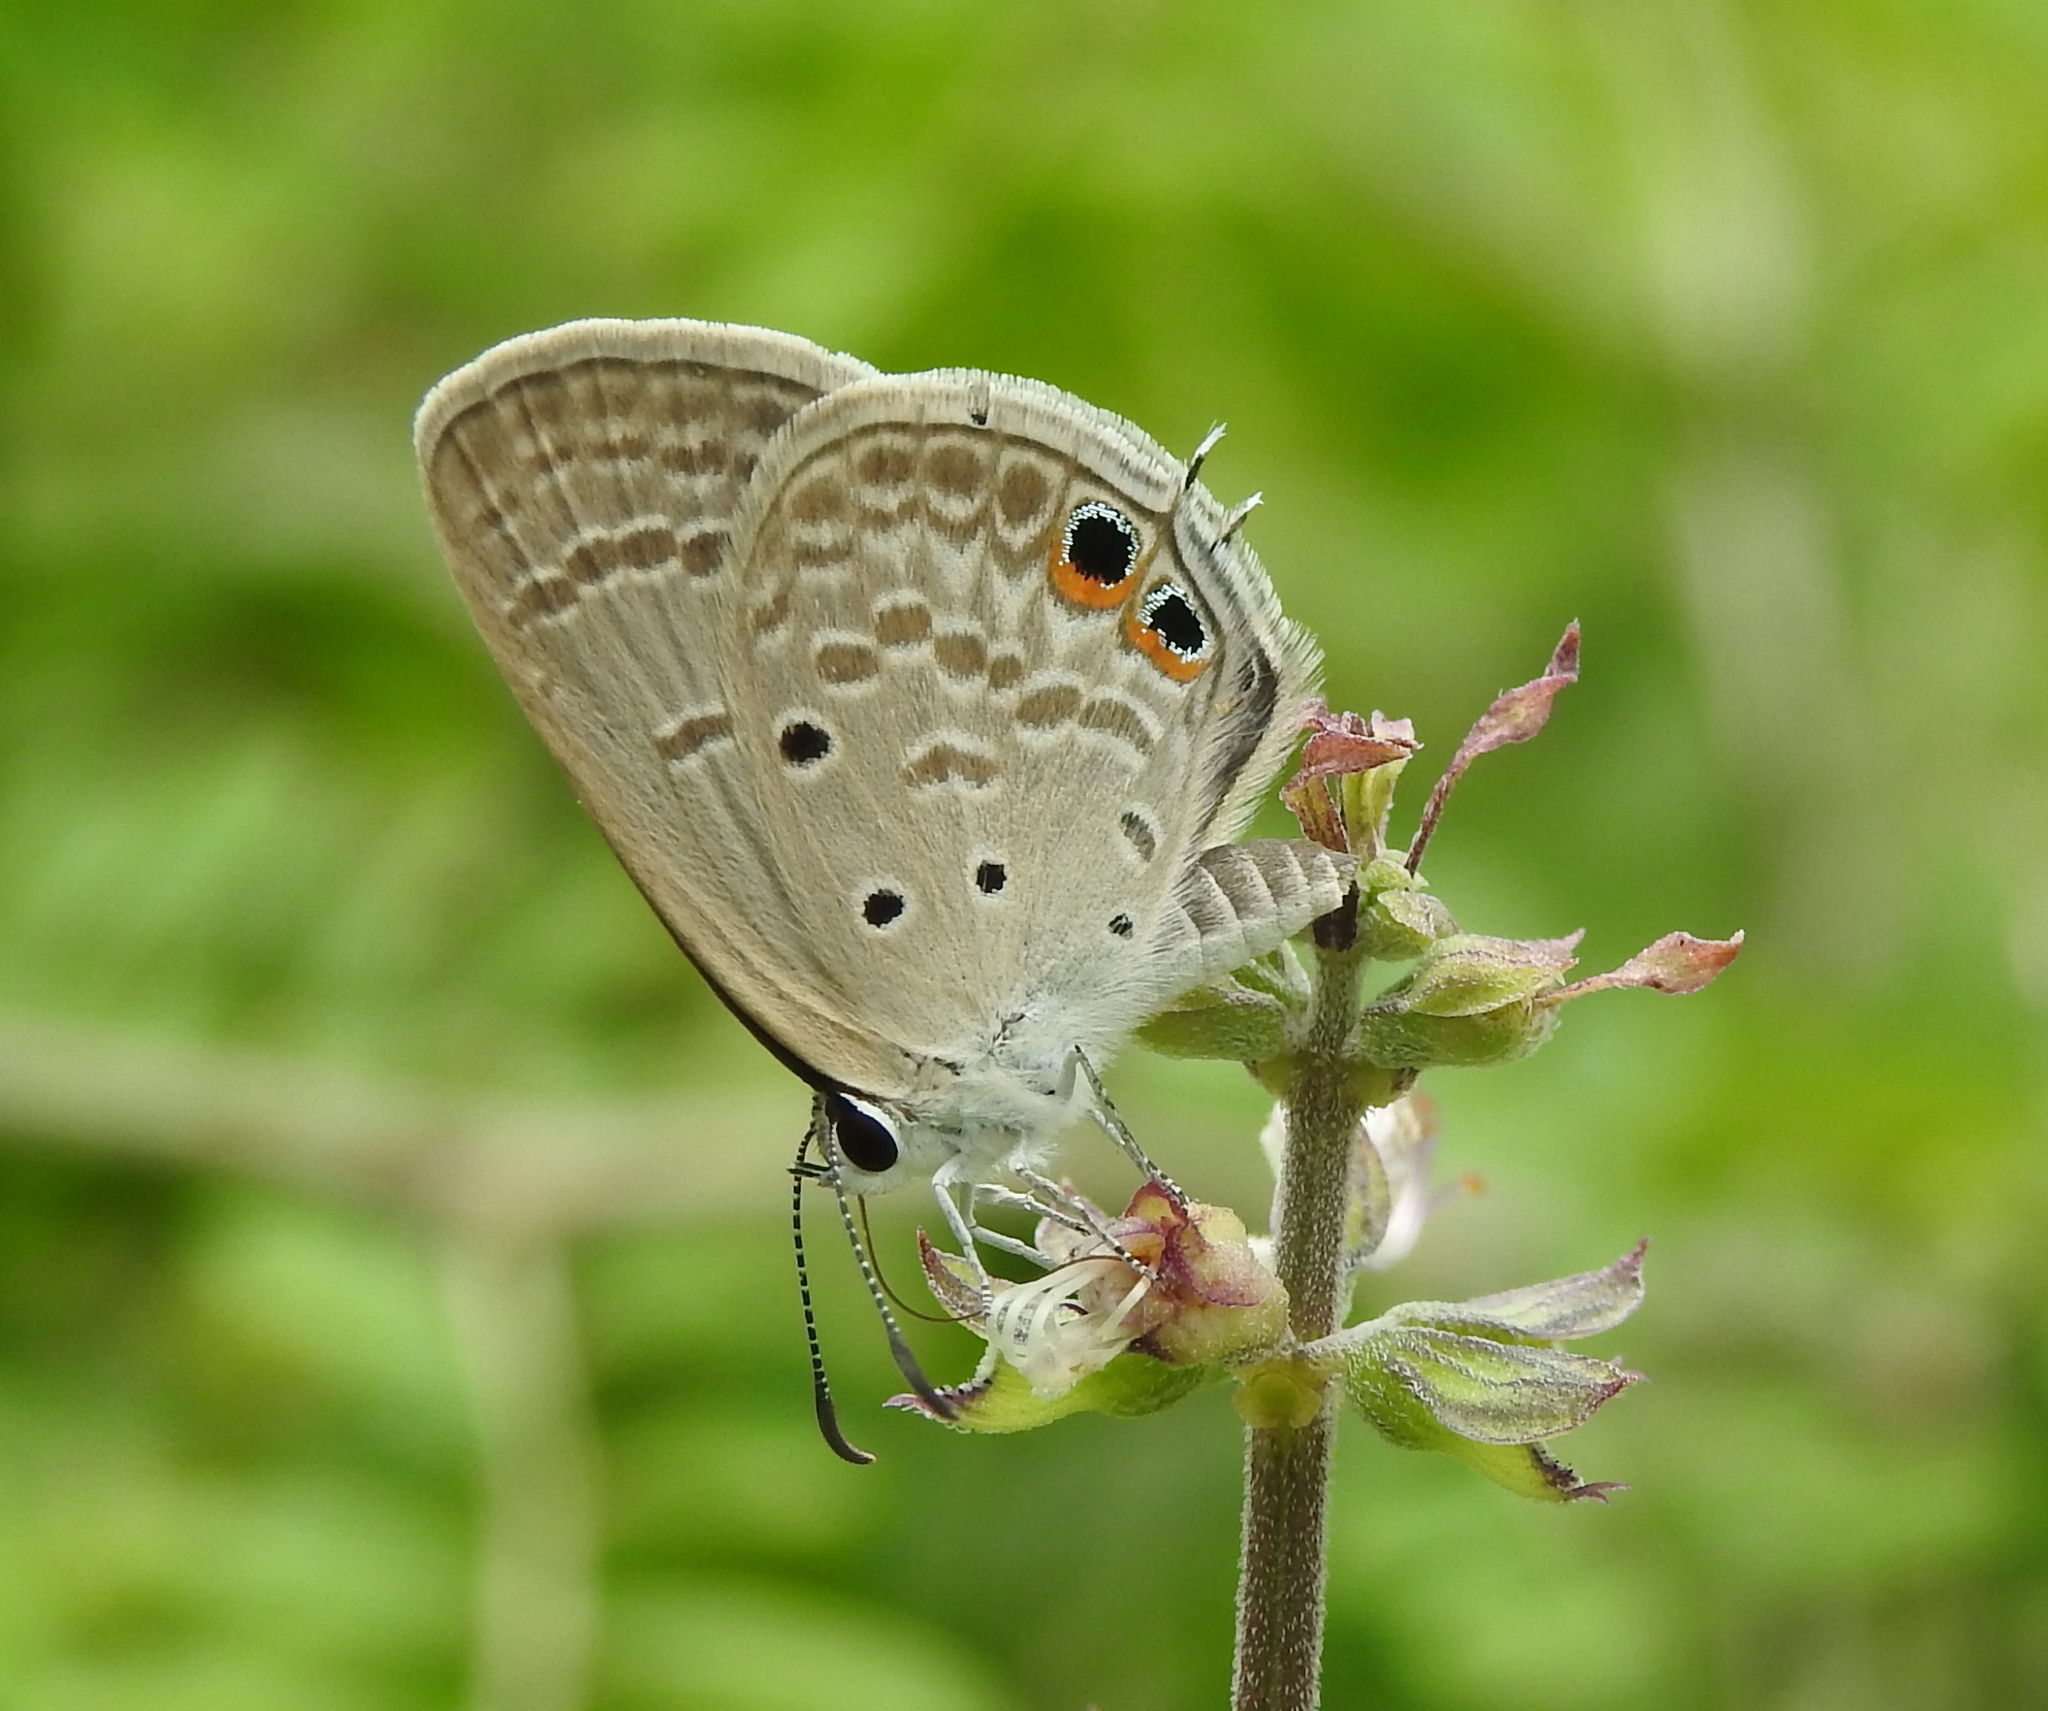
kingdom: Animalia
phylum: Arthropoda
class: Insecta
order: Lepidoptera
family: Lycaenidae
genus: Euchrysops
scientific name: Euchrysops cnejus
